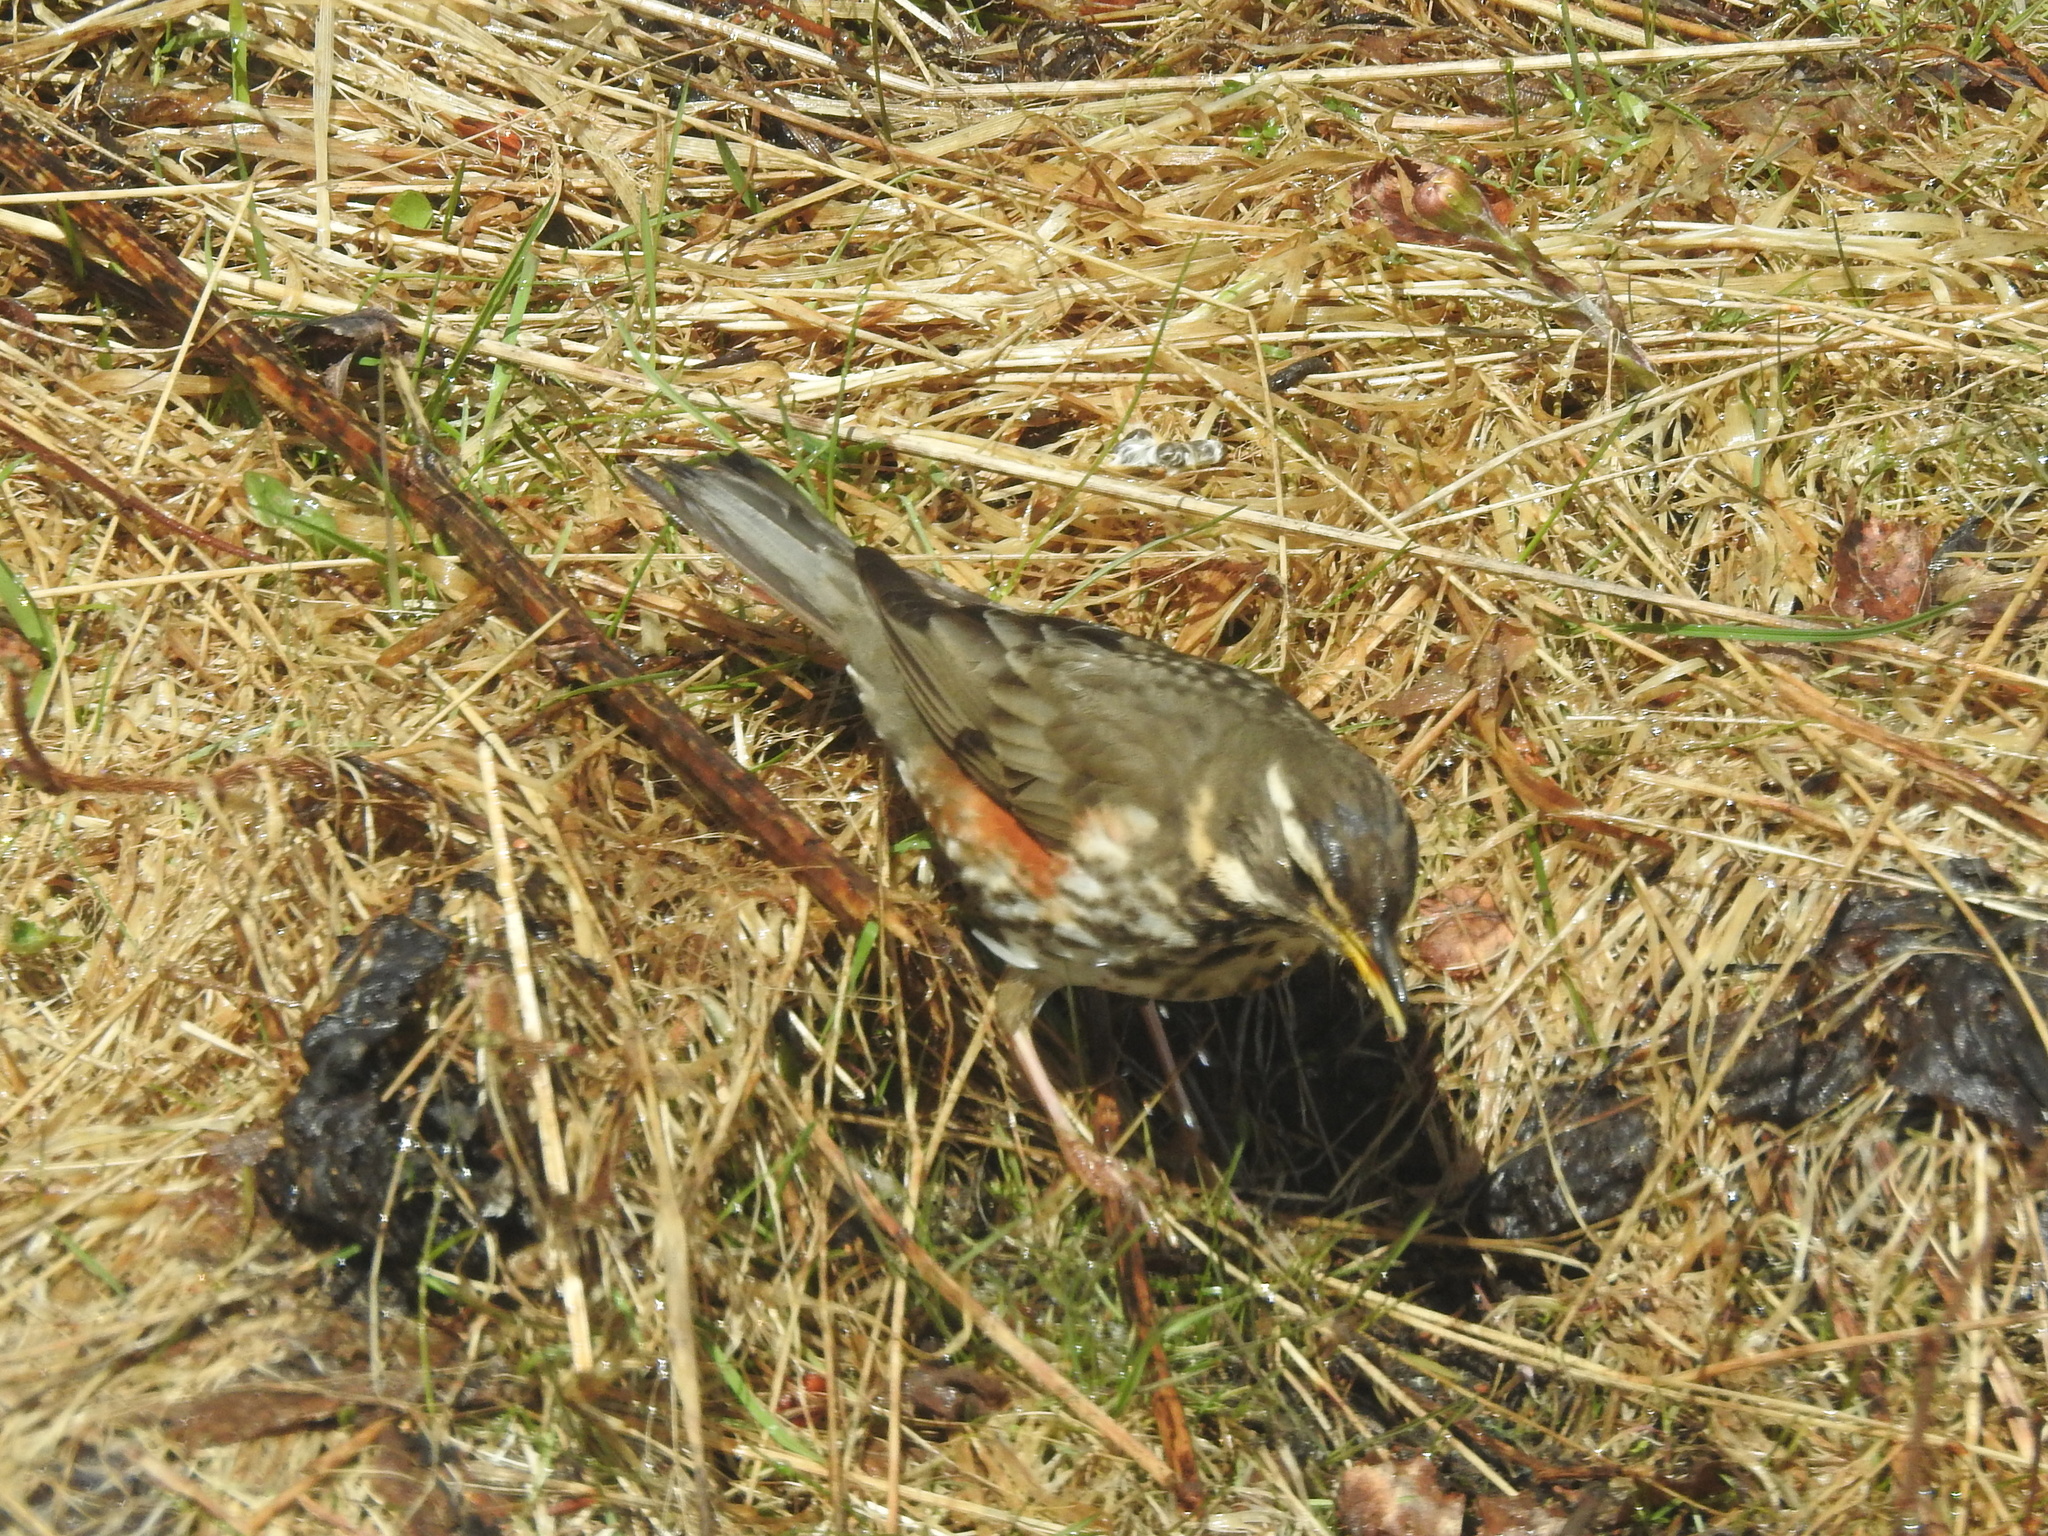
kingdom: Animalia
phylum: Chordata
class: Aves
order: Passeriformes
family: Turdidae
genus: Turdus
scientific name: Turdus iliacus
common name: Redwing
